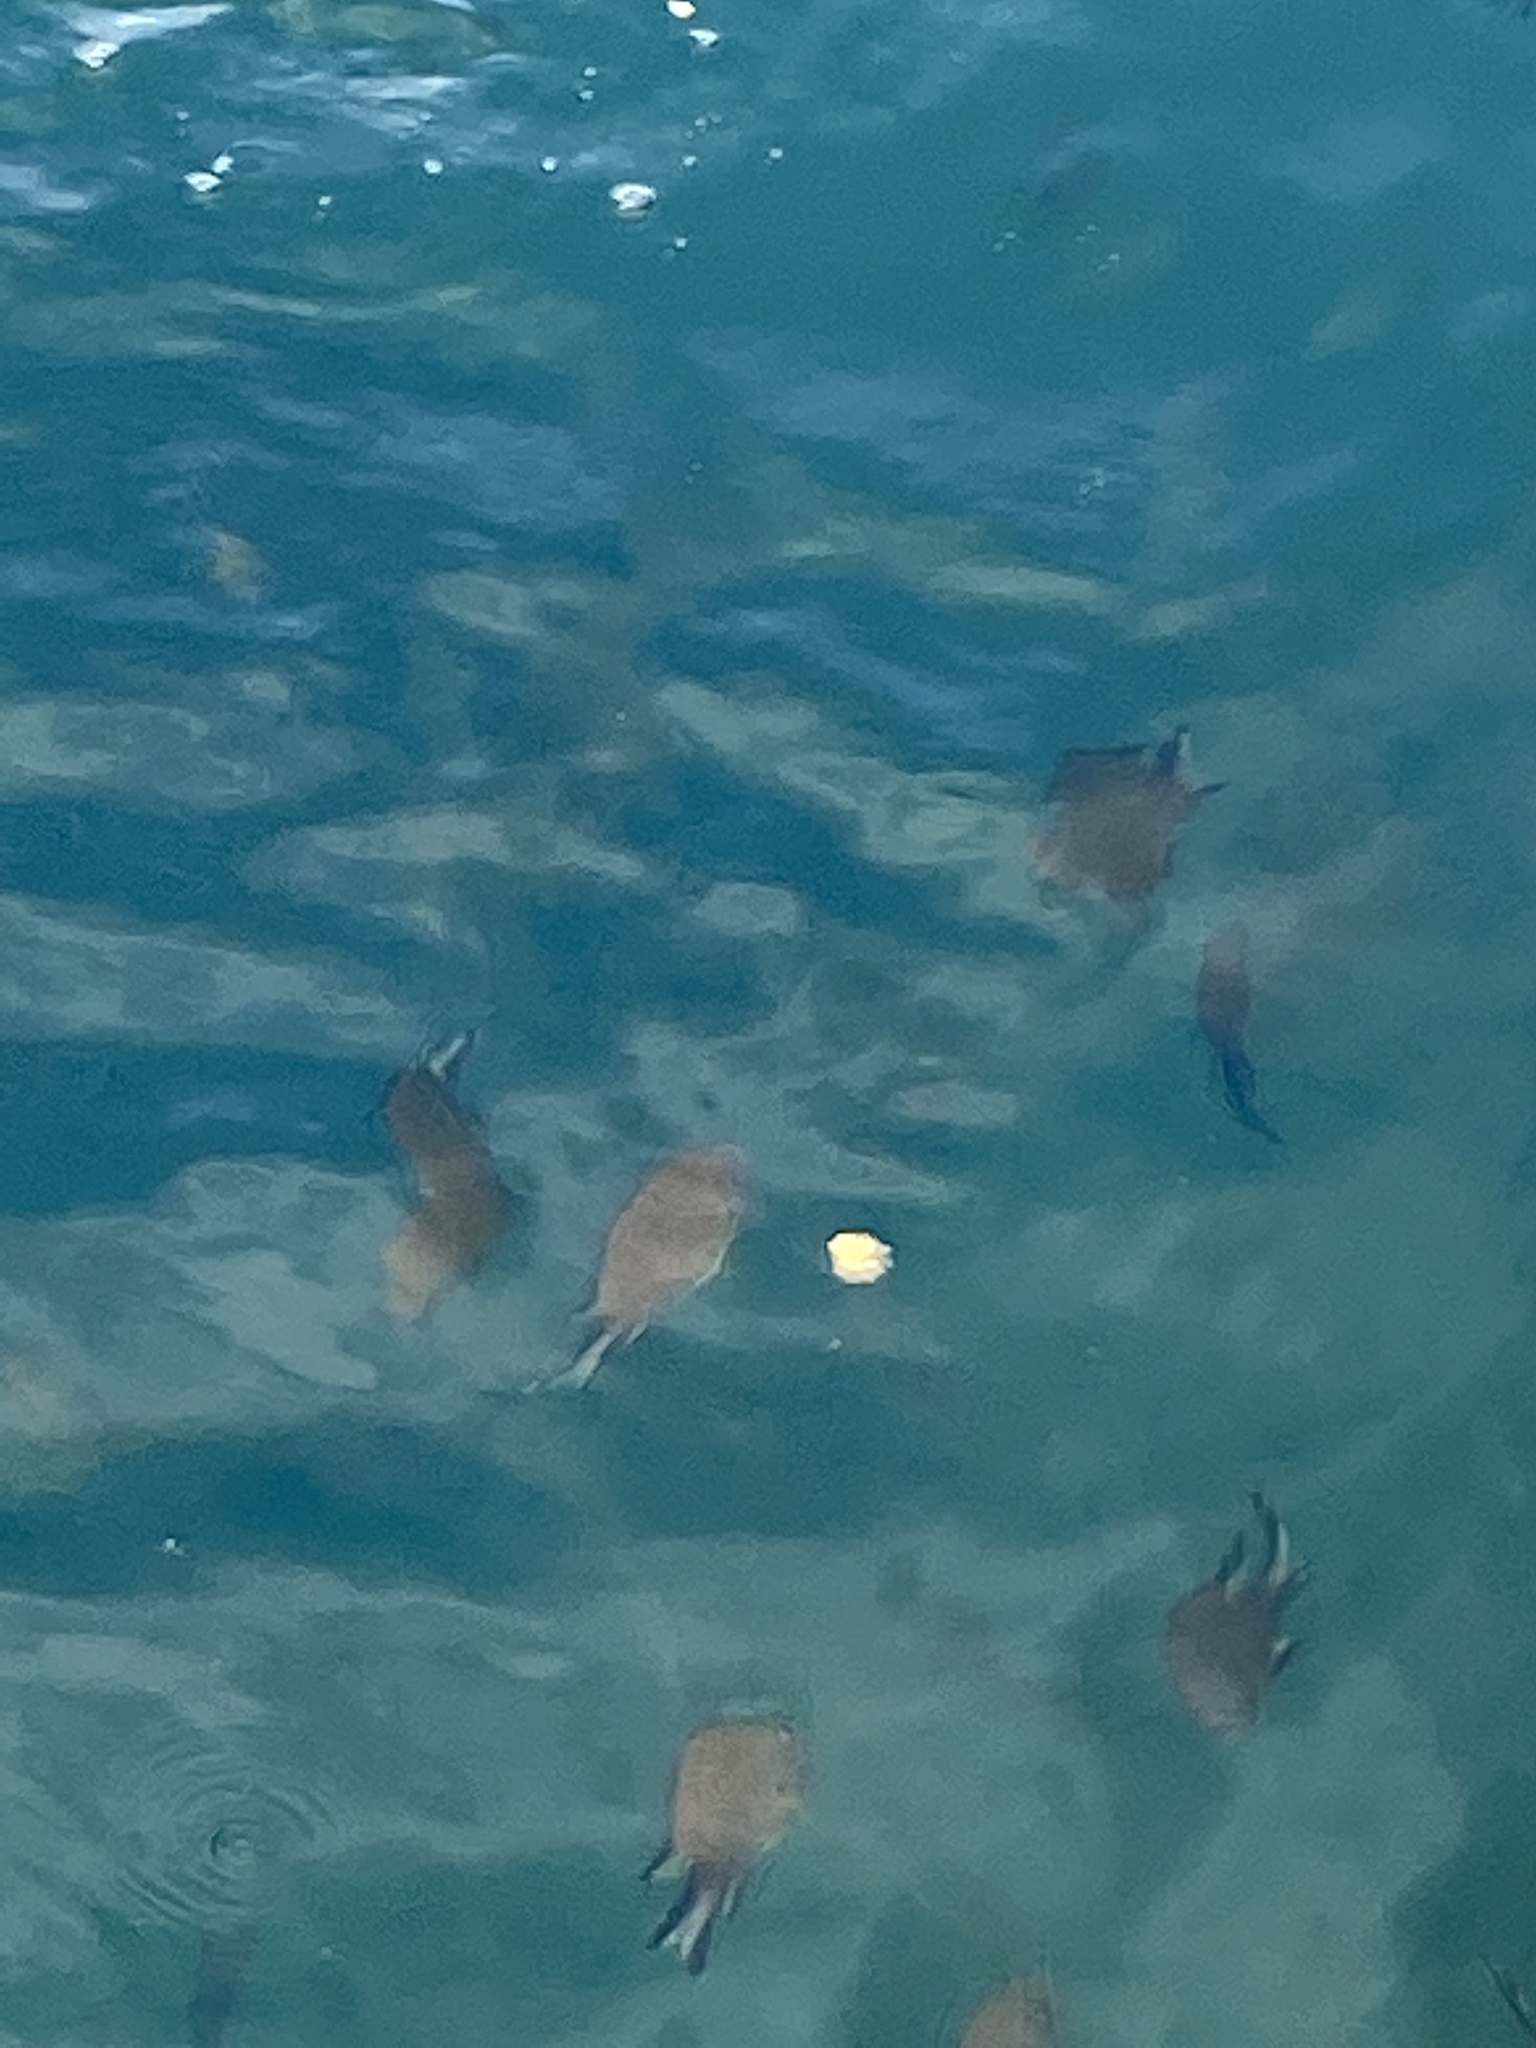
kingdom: Animalia
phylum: Chordata
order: Perciformes
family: Pomacentridae
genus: Chromis
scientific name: Chromis limbata
